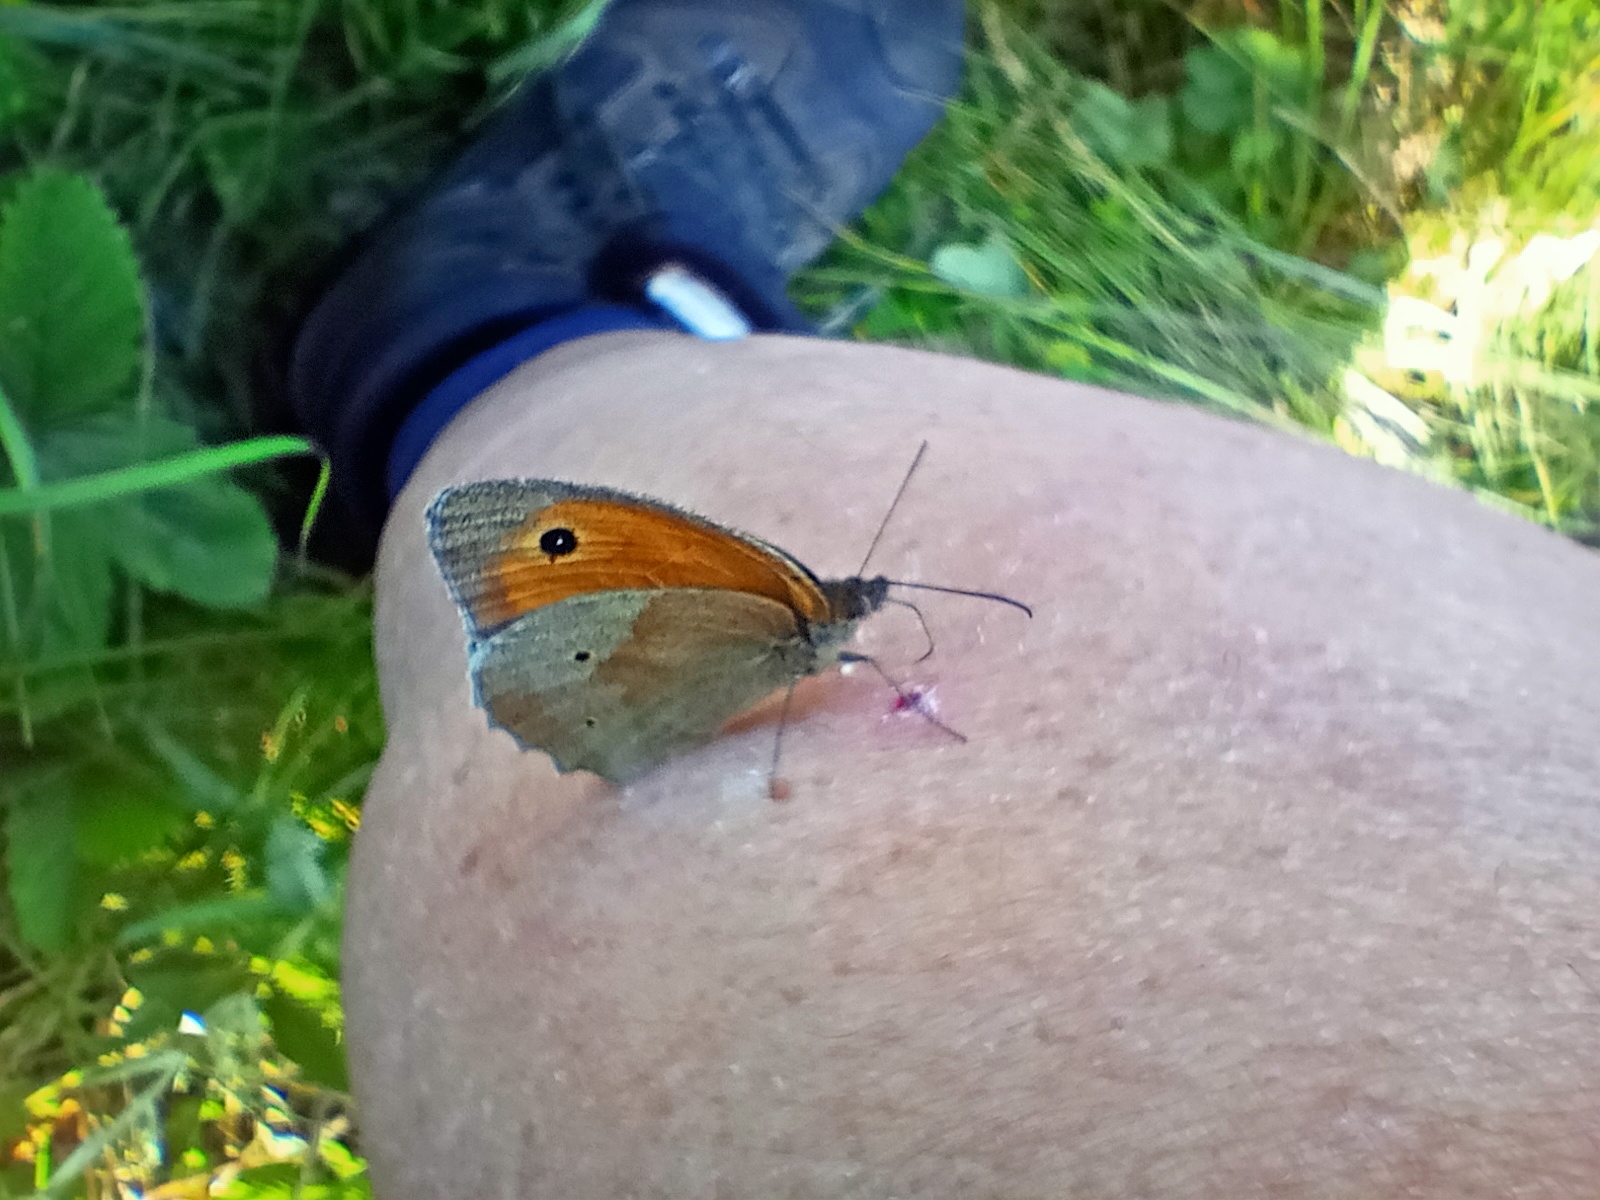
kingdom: Animalia
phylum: Arthropoda
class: Insecta
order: Lepidoptera
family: Nymphalidae
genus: Maniola
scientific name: Maniola jurtina
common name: Meadow brown
